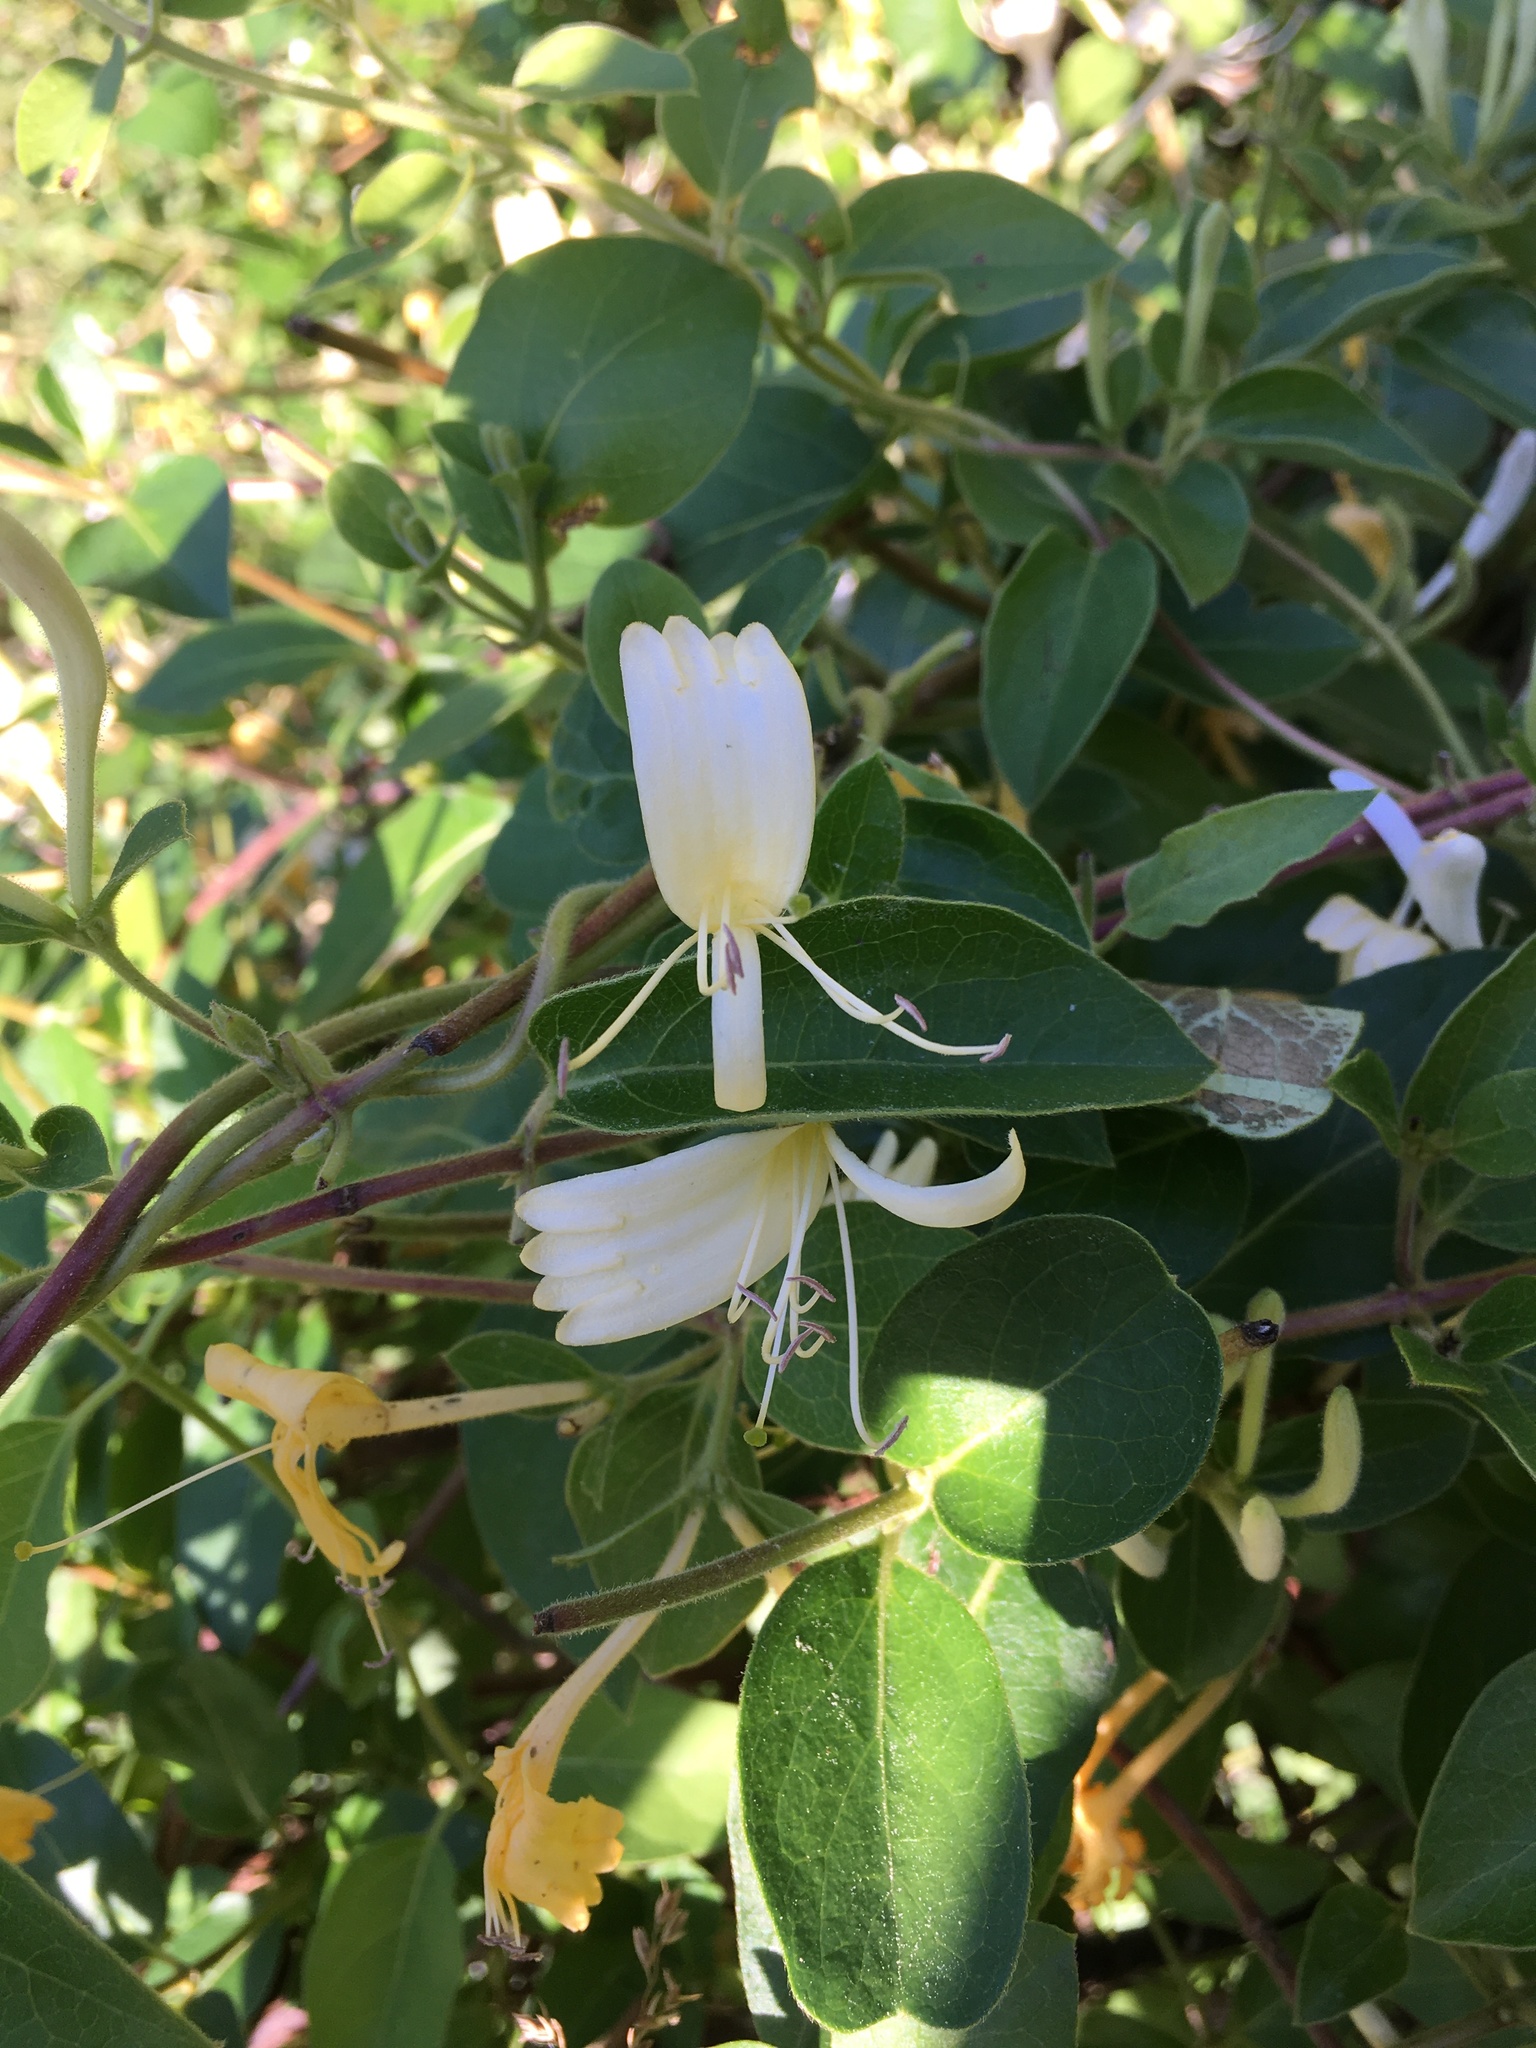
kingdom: Plantae
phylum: Tracheophyta
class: Magnoliopsida
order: Dipsacales
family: Caprifoliaceae
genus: Lonicera
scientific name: Lonicera japonica
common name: Japanese honeysuckle
